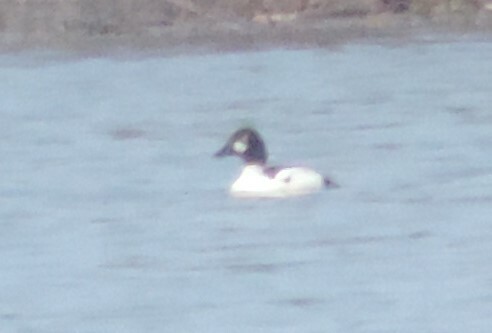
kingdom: Animalia
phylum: Chordata
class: Aves
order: Anseriformes
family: Anatidae
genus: Bucephala
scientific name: Bucephala clangula
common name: Common goldeneye
